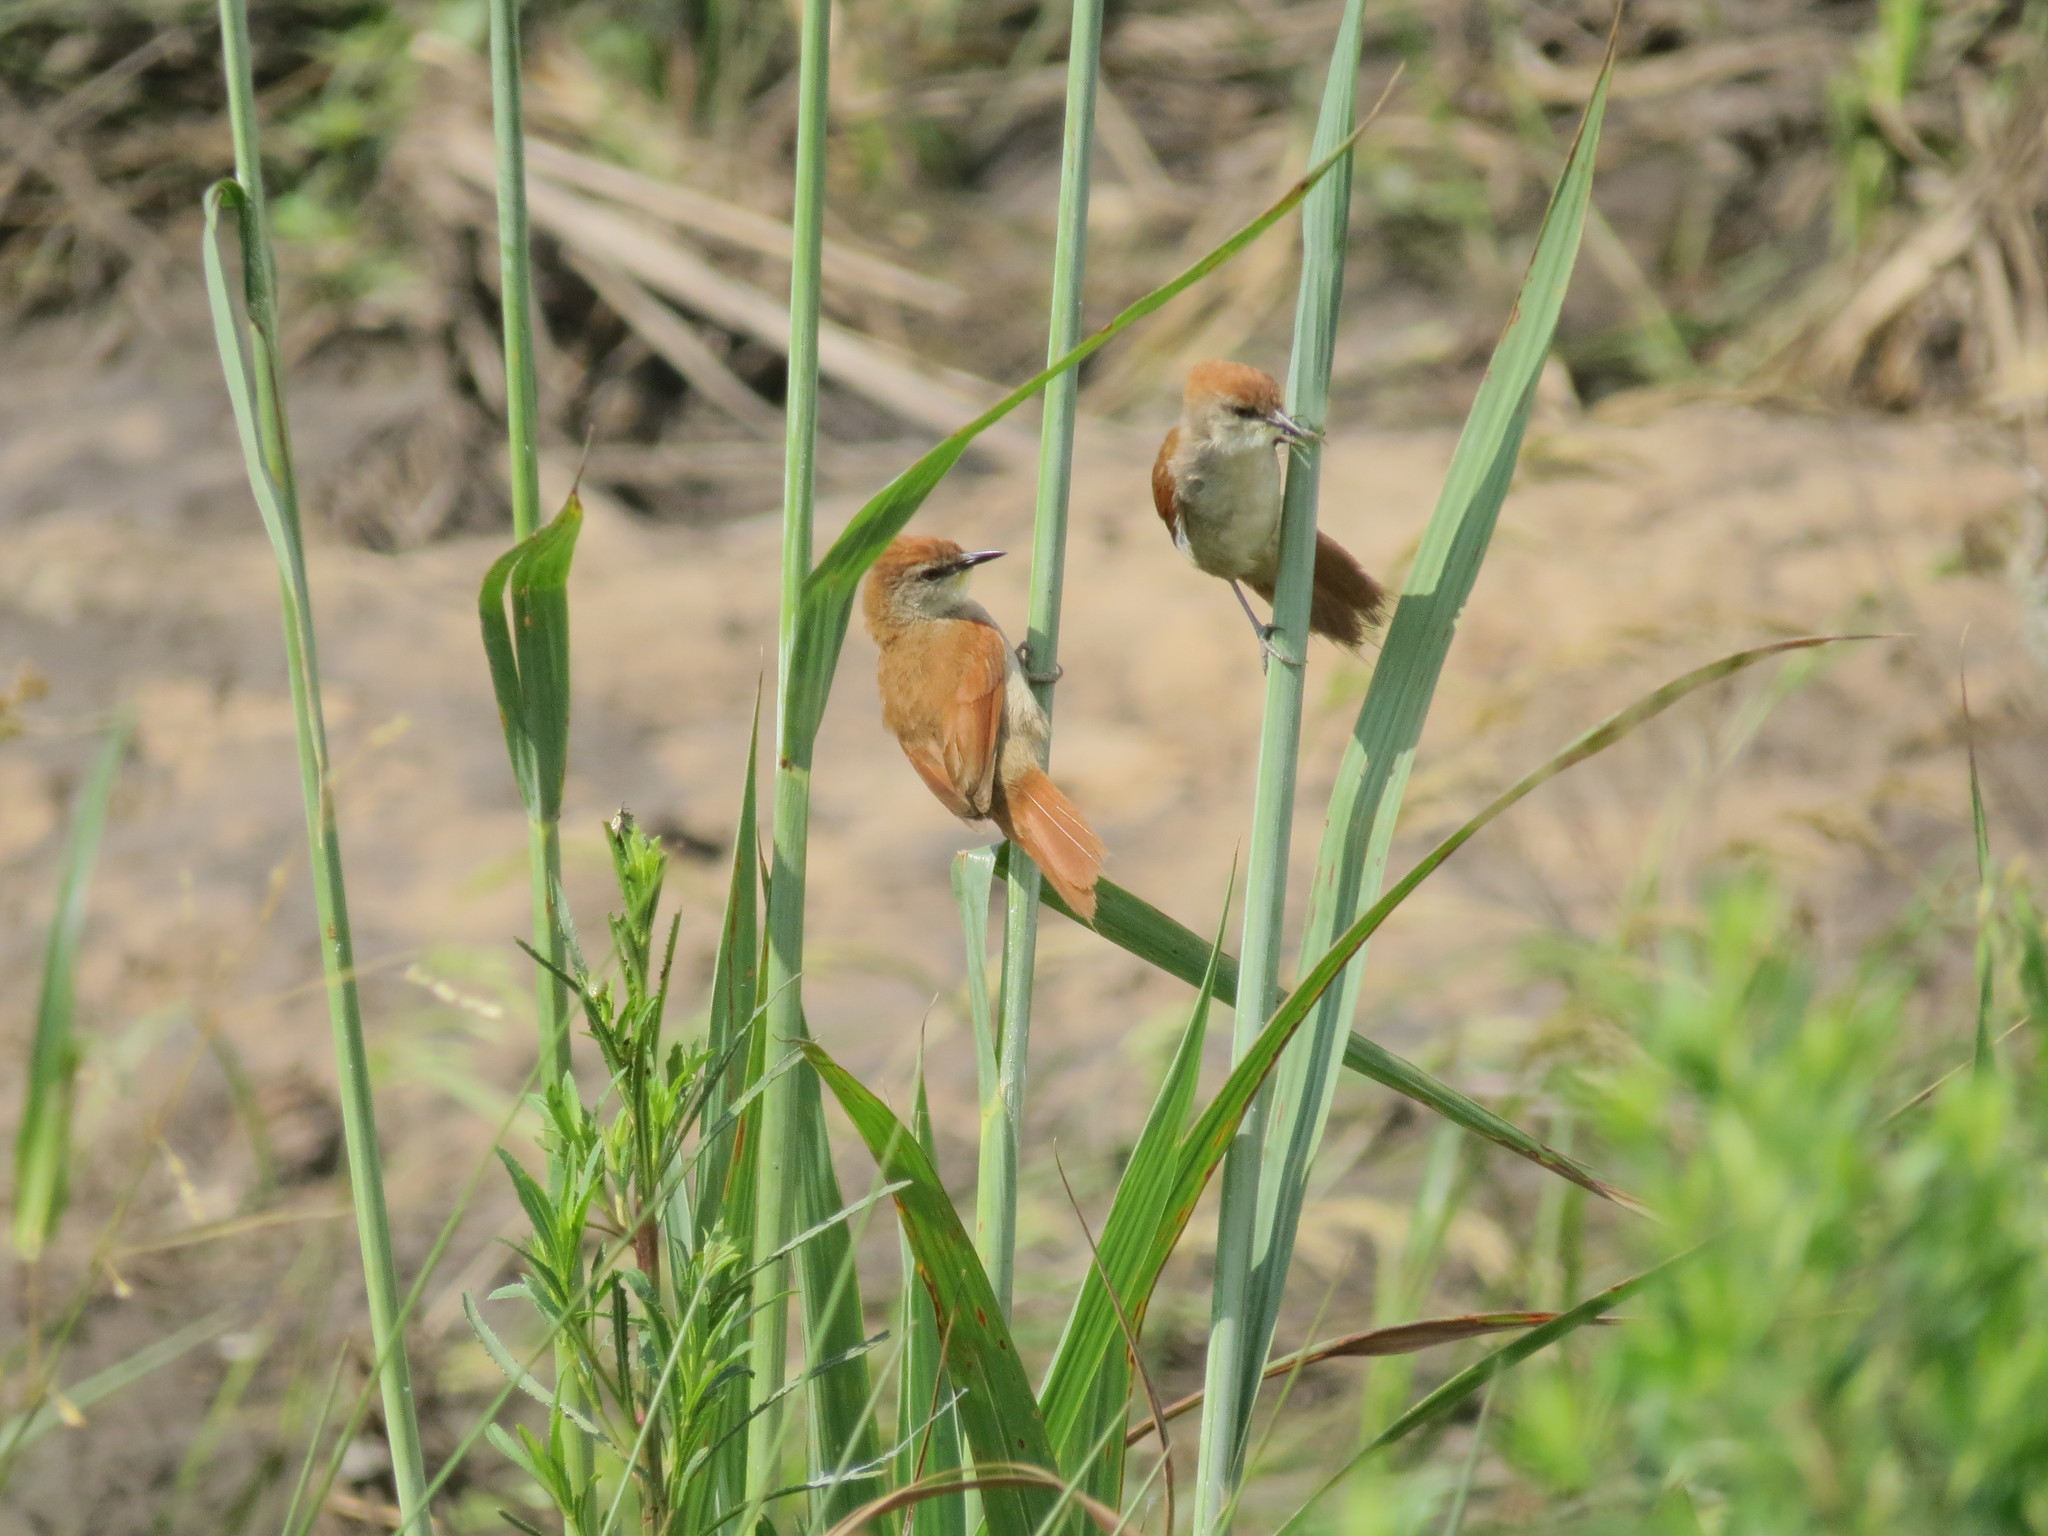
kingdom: Animalia
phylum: Chordata
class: Aves
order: Passeriformes
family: Furnariidae
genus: Certhiaxis
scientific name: Certhiaxis cinnamomeus
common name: Yellow-chinned spinetail
